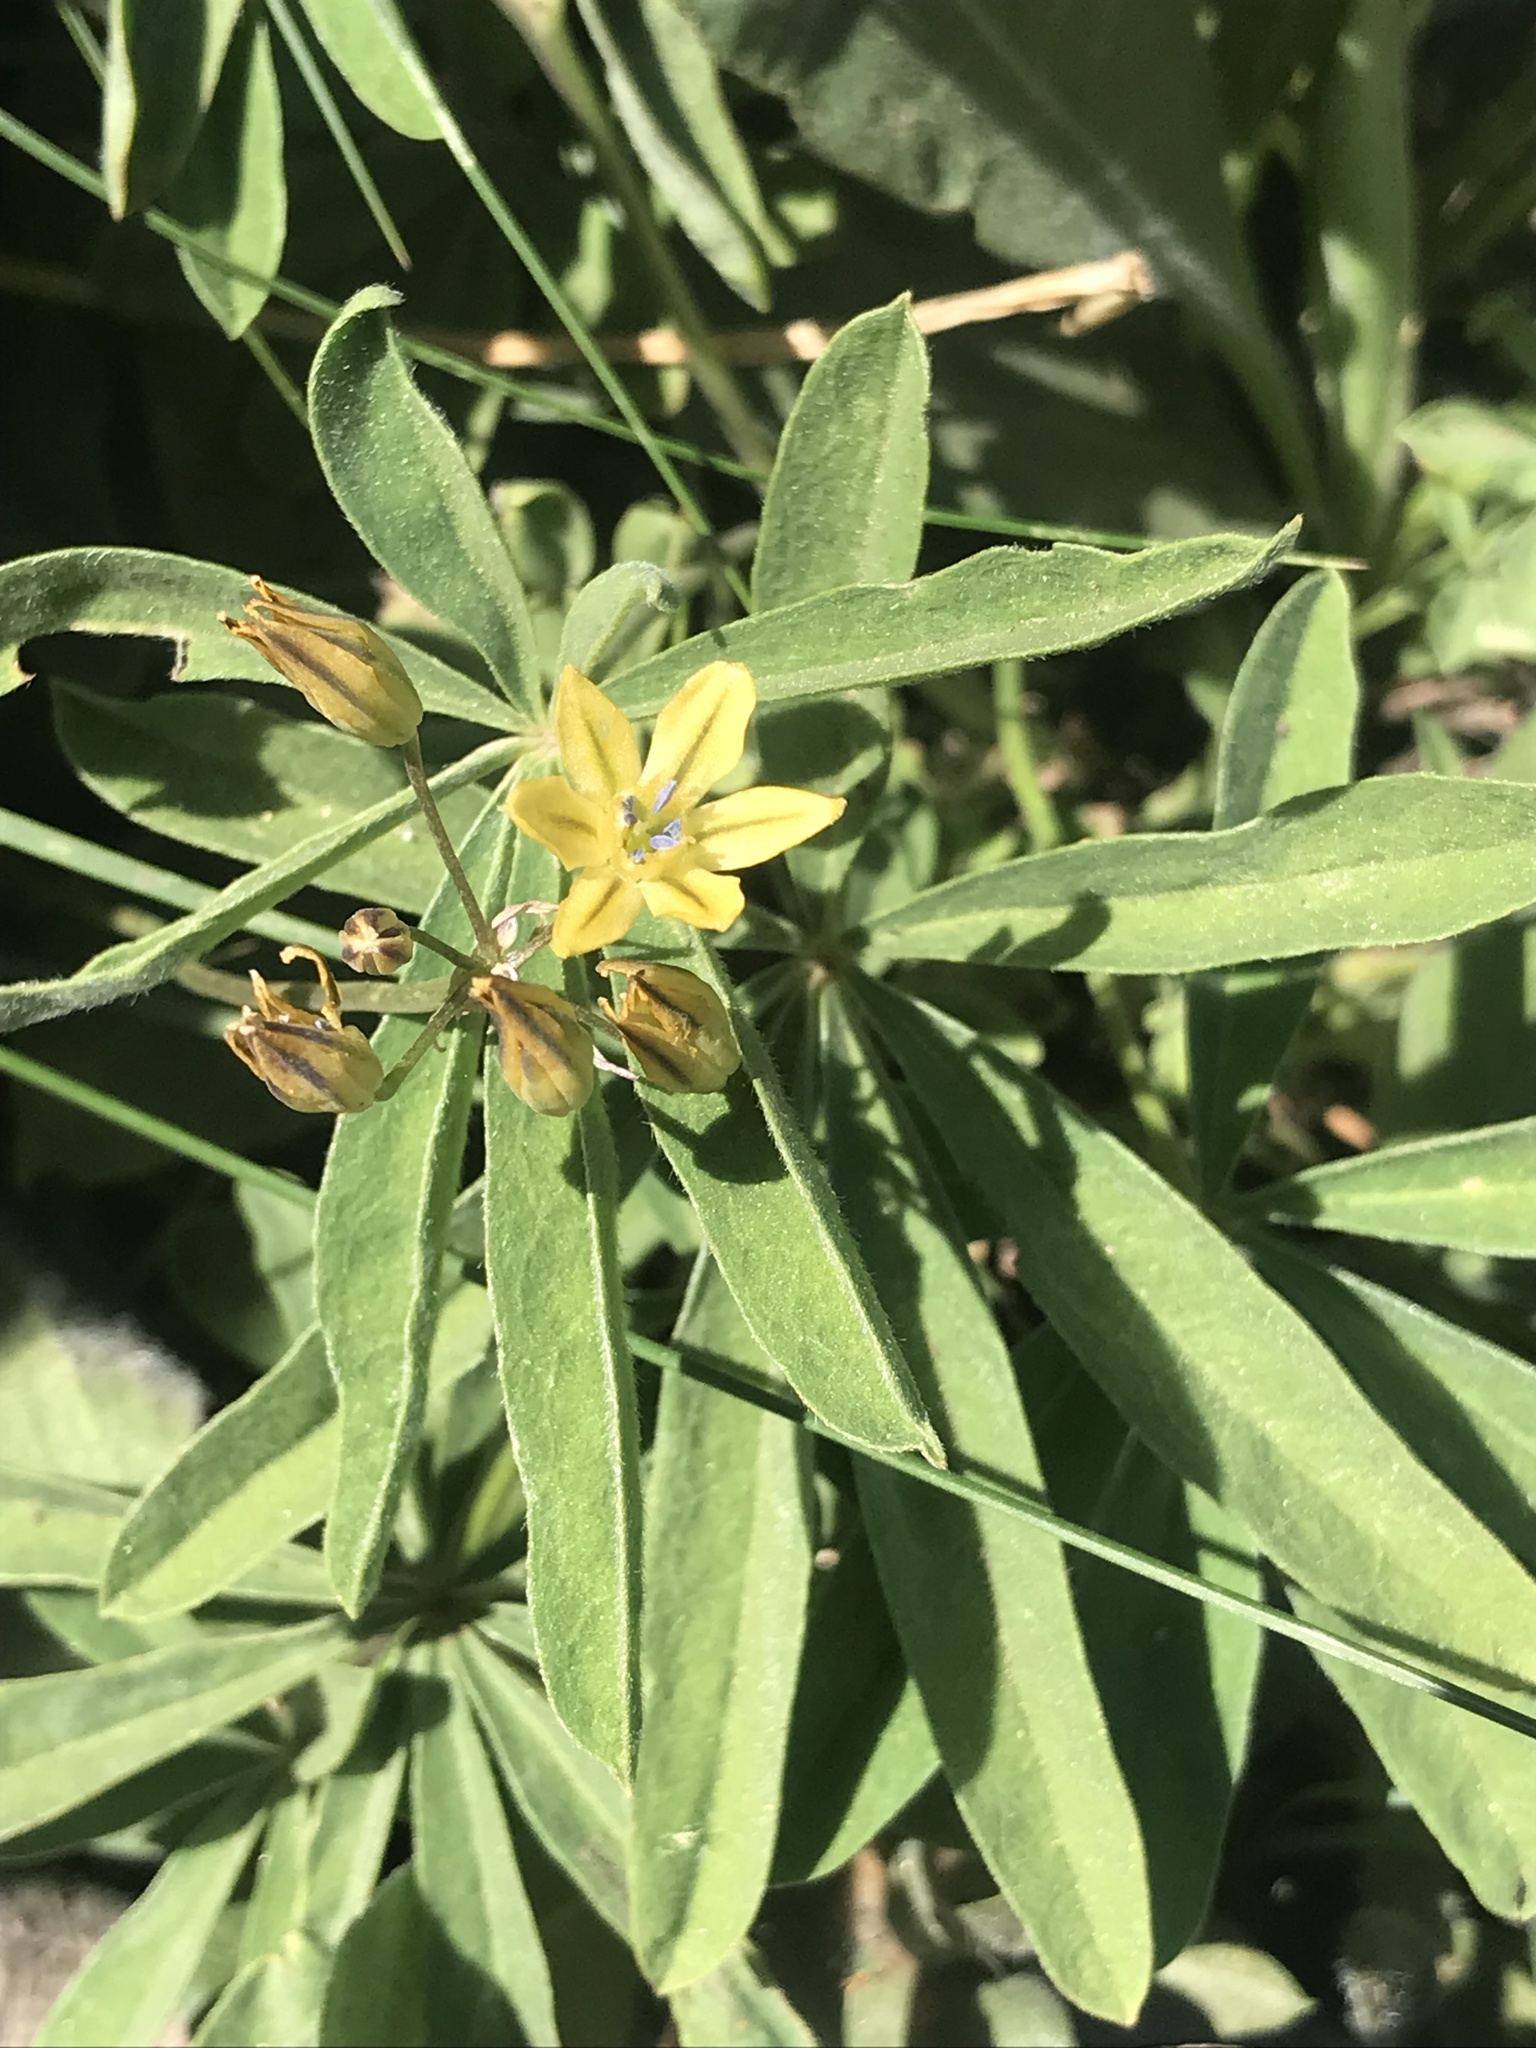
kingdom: Plantae
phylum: Tracheophyta
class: Liliopsida
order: Asparagales
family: Asparagaceae
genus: Triteleia
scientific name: Triteleia ixioides
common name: Yellow-brodiaea
